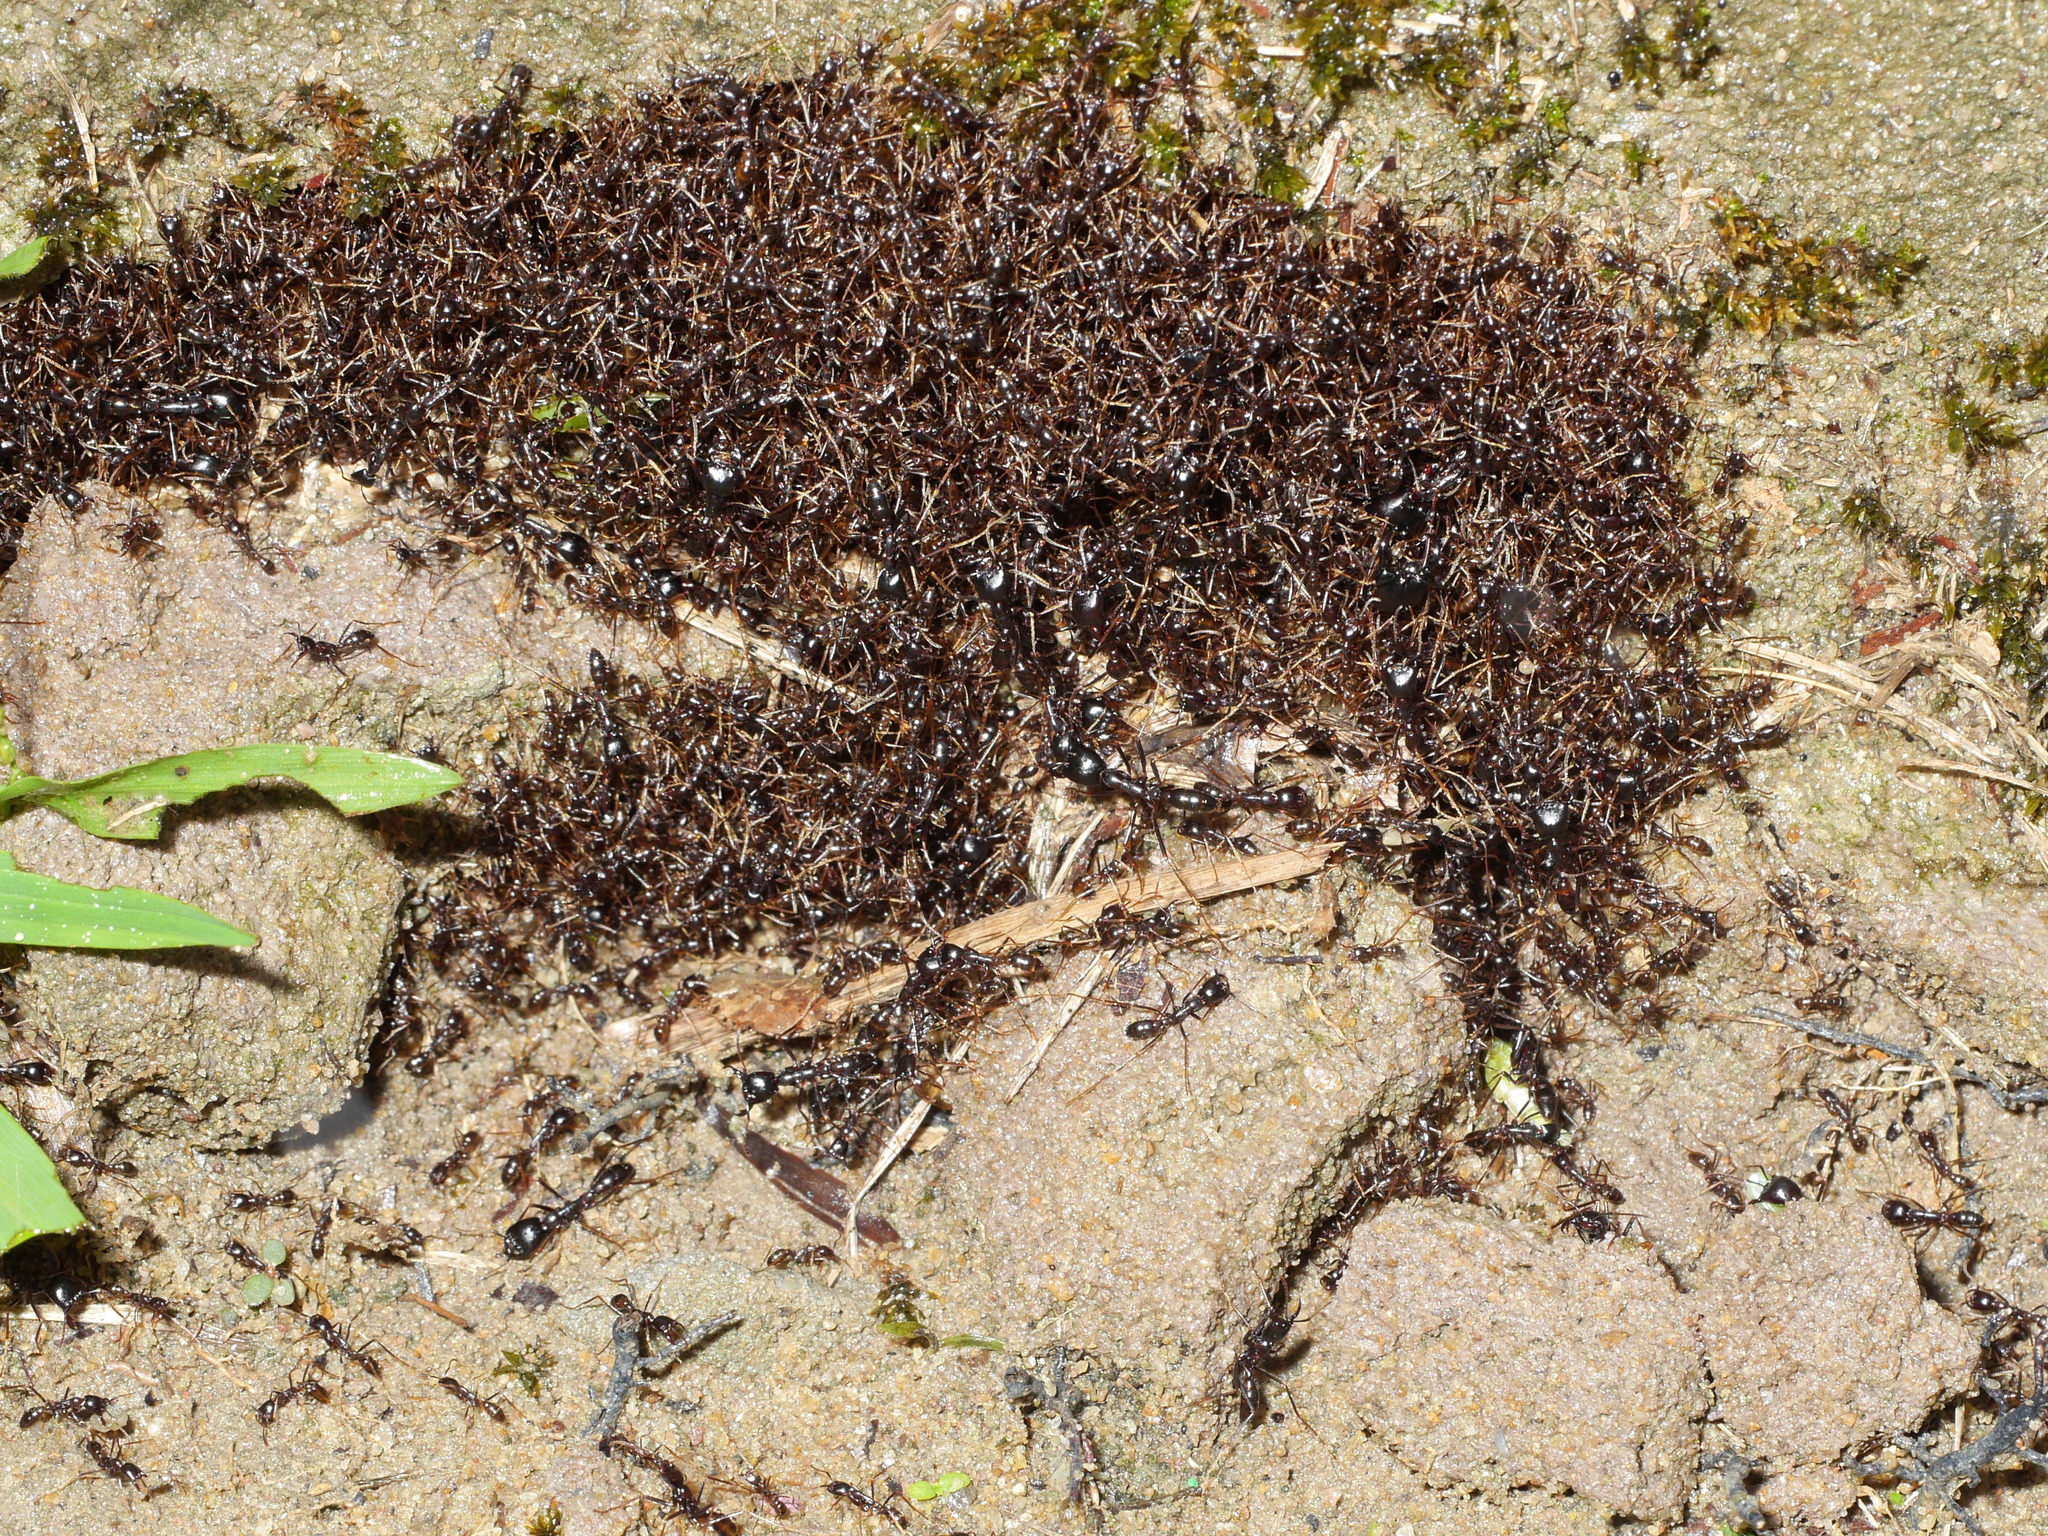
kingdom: Animalia
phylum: Arthropoda
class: Insecta
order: Hymenoptera
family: Formicidae
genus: Dorylus
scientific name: Dorylus nigricans
